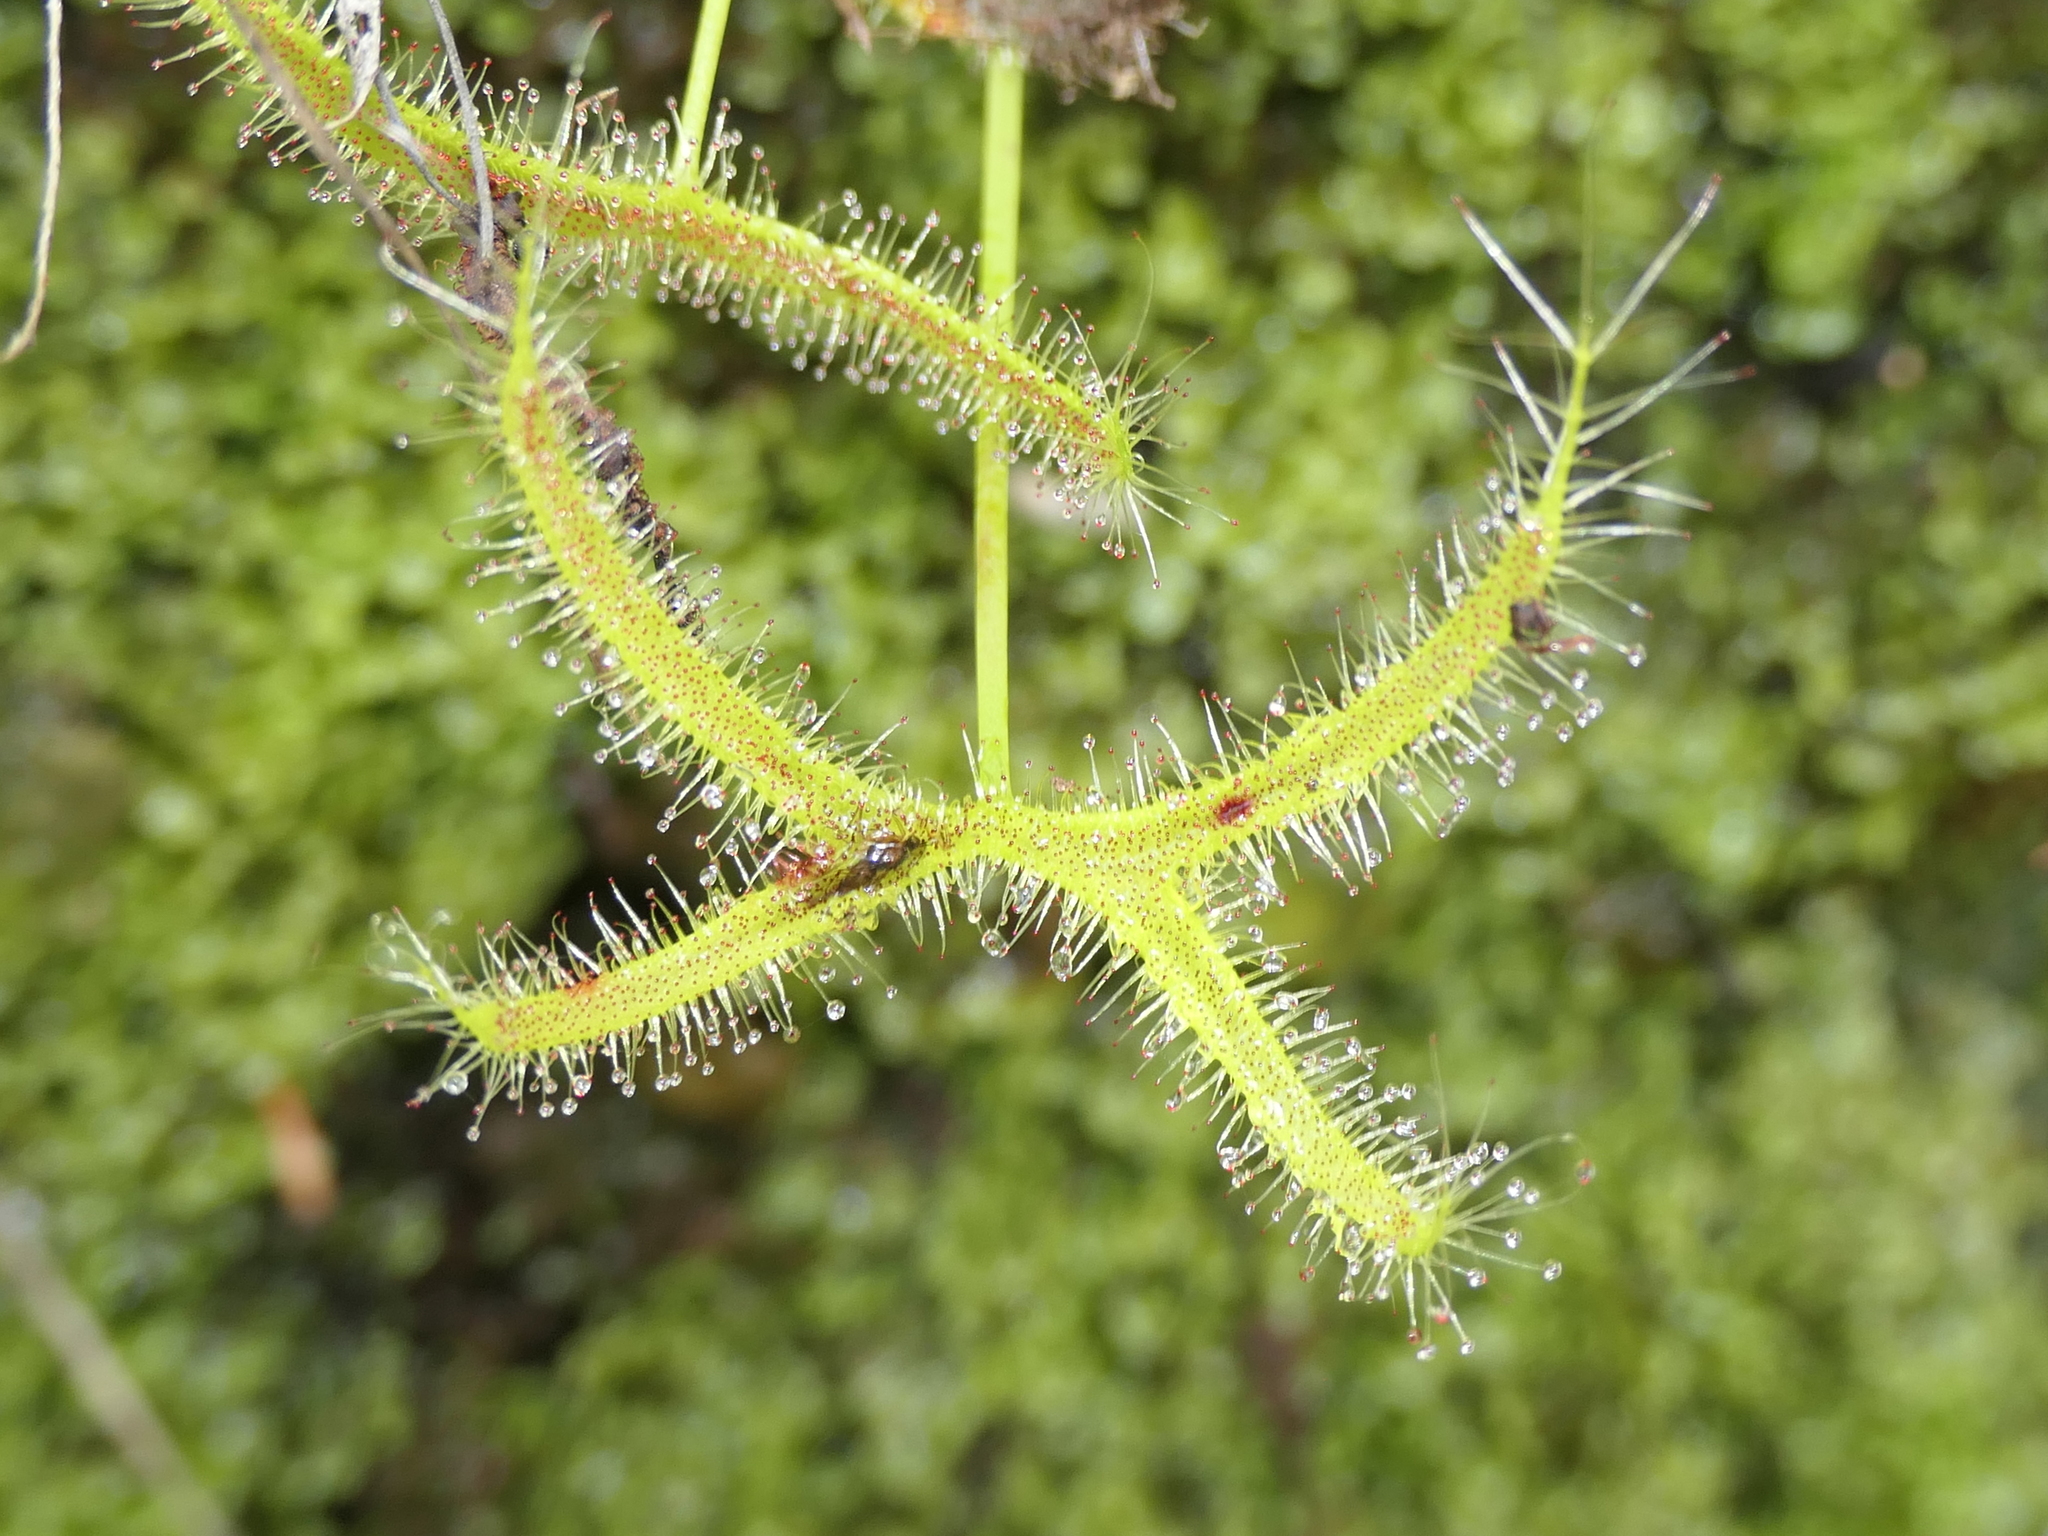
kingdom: Plantae
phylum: Tracheophyta
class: Magnoliopsida
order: Caryophyllales
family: Droseraceae
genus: Drosera
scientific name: Drosera binata
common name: Forked sundew
